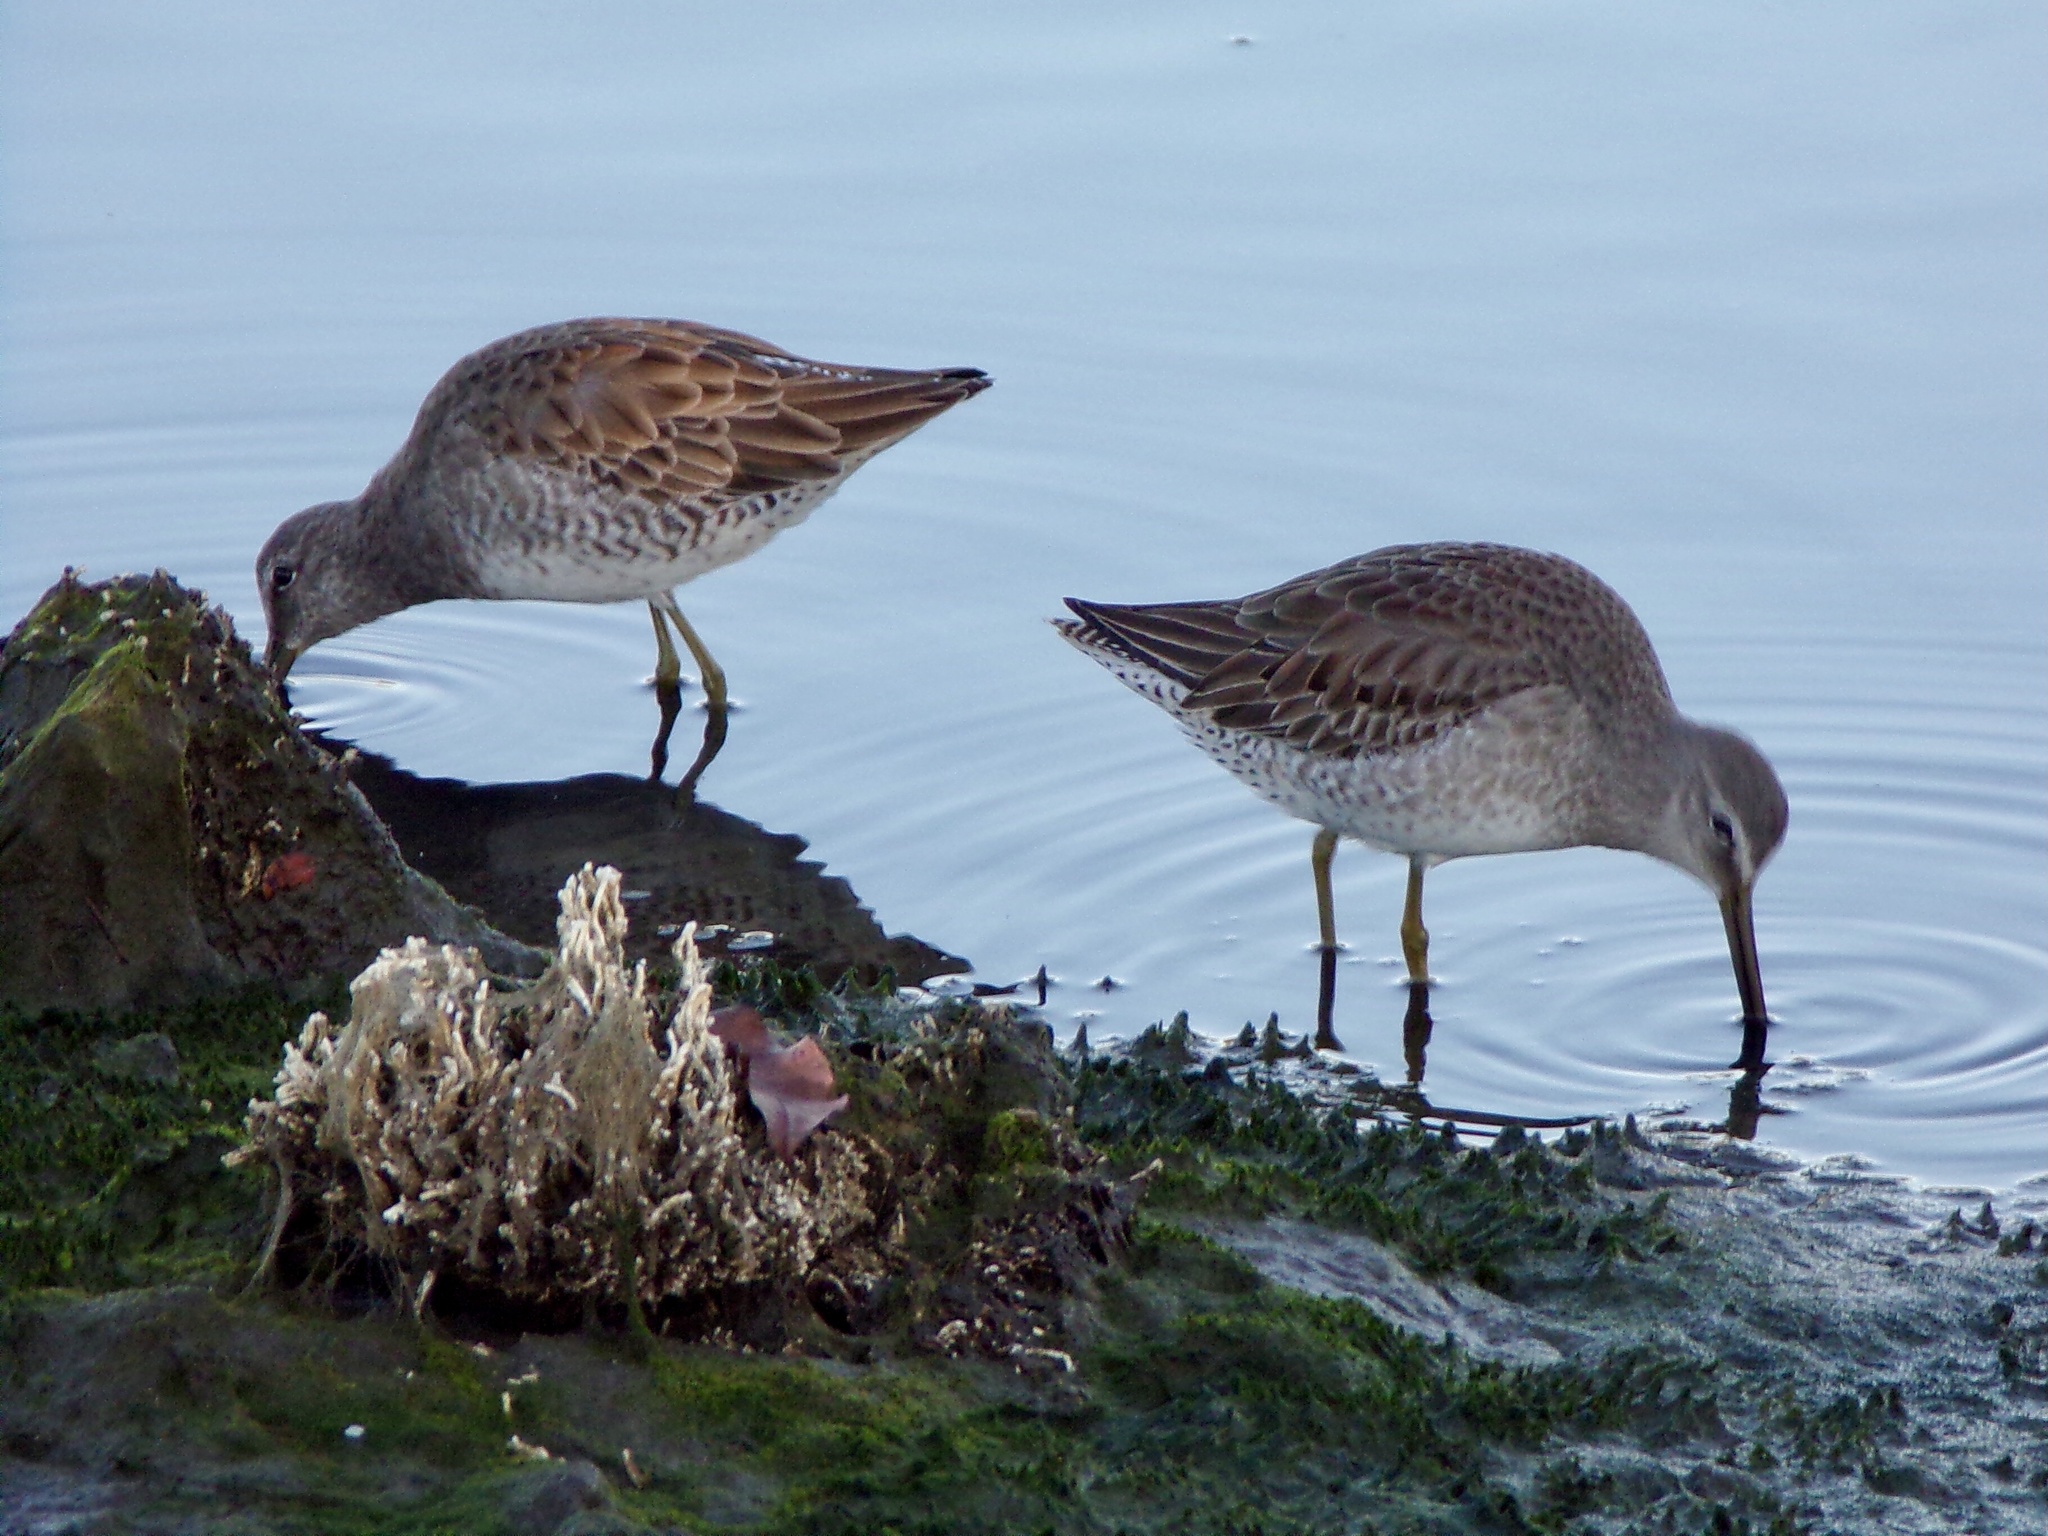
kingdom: Animalia
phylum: Chordata
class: Aves
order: Charadriiformes
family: Scolopacidae
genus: Limnodromus
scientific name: Limnodromus scolopaceus
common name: Long-billed dowitcher
